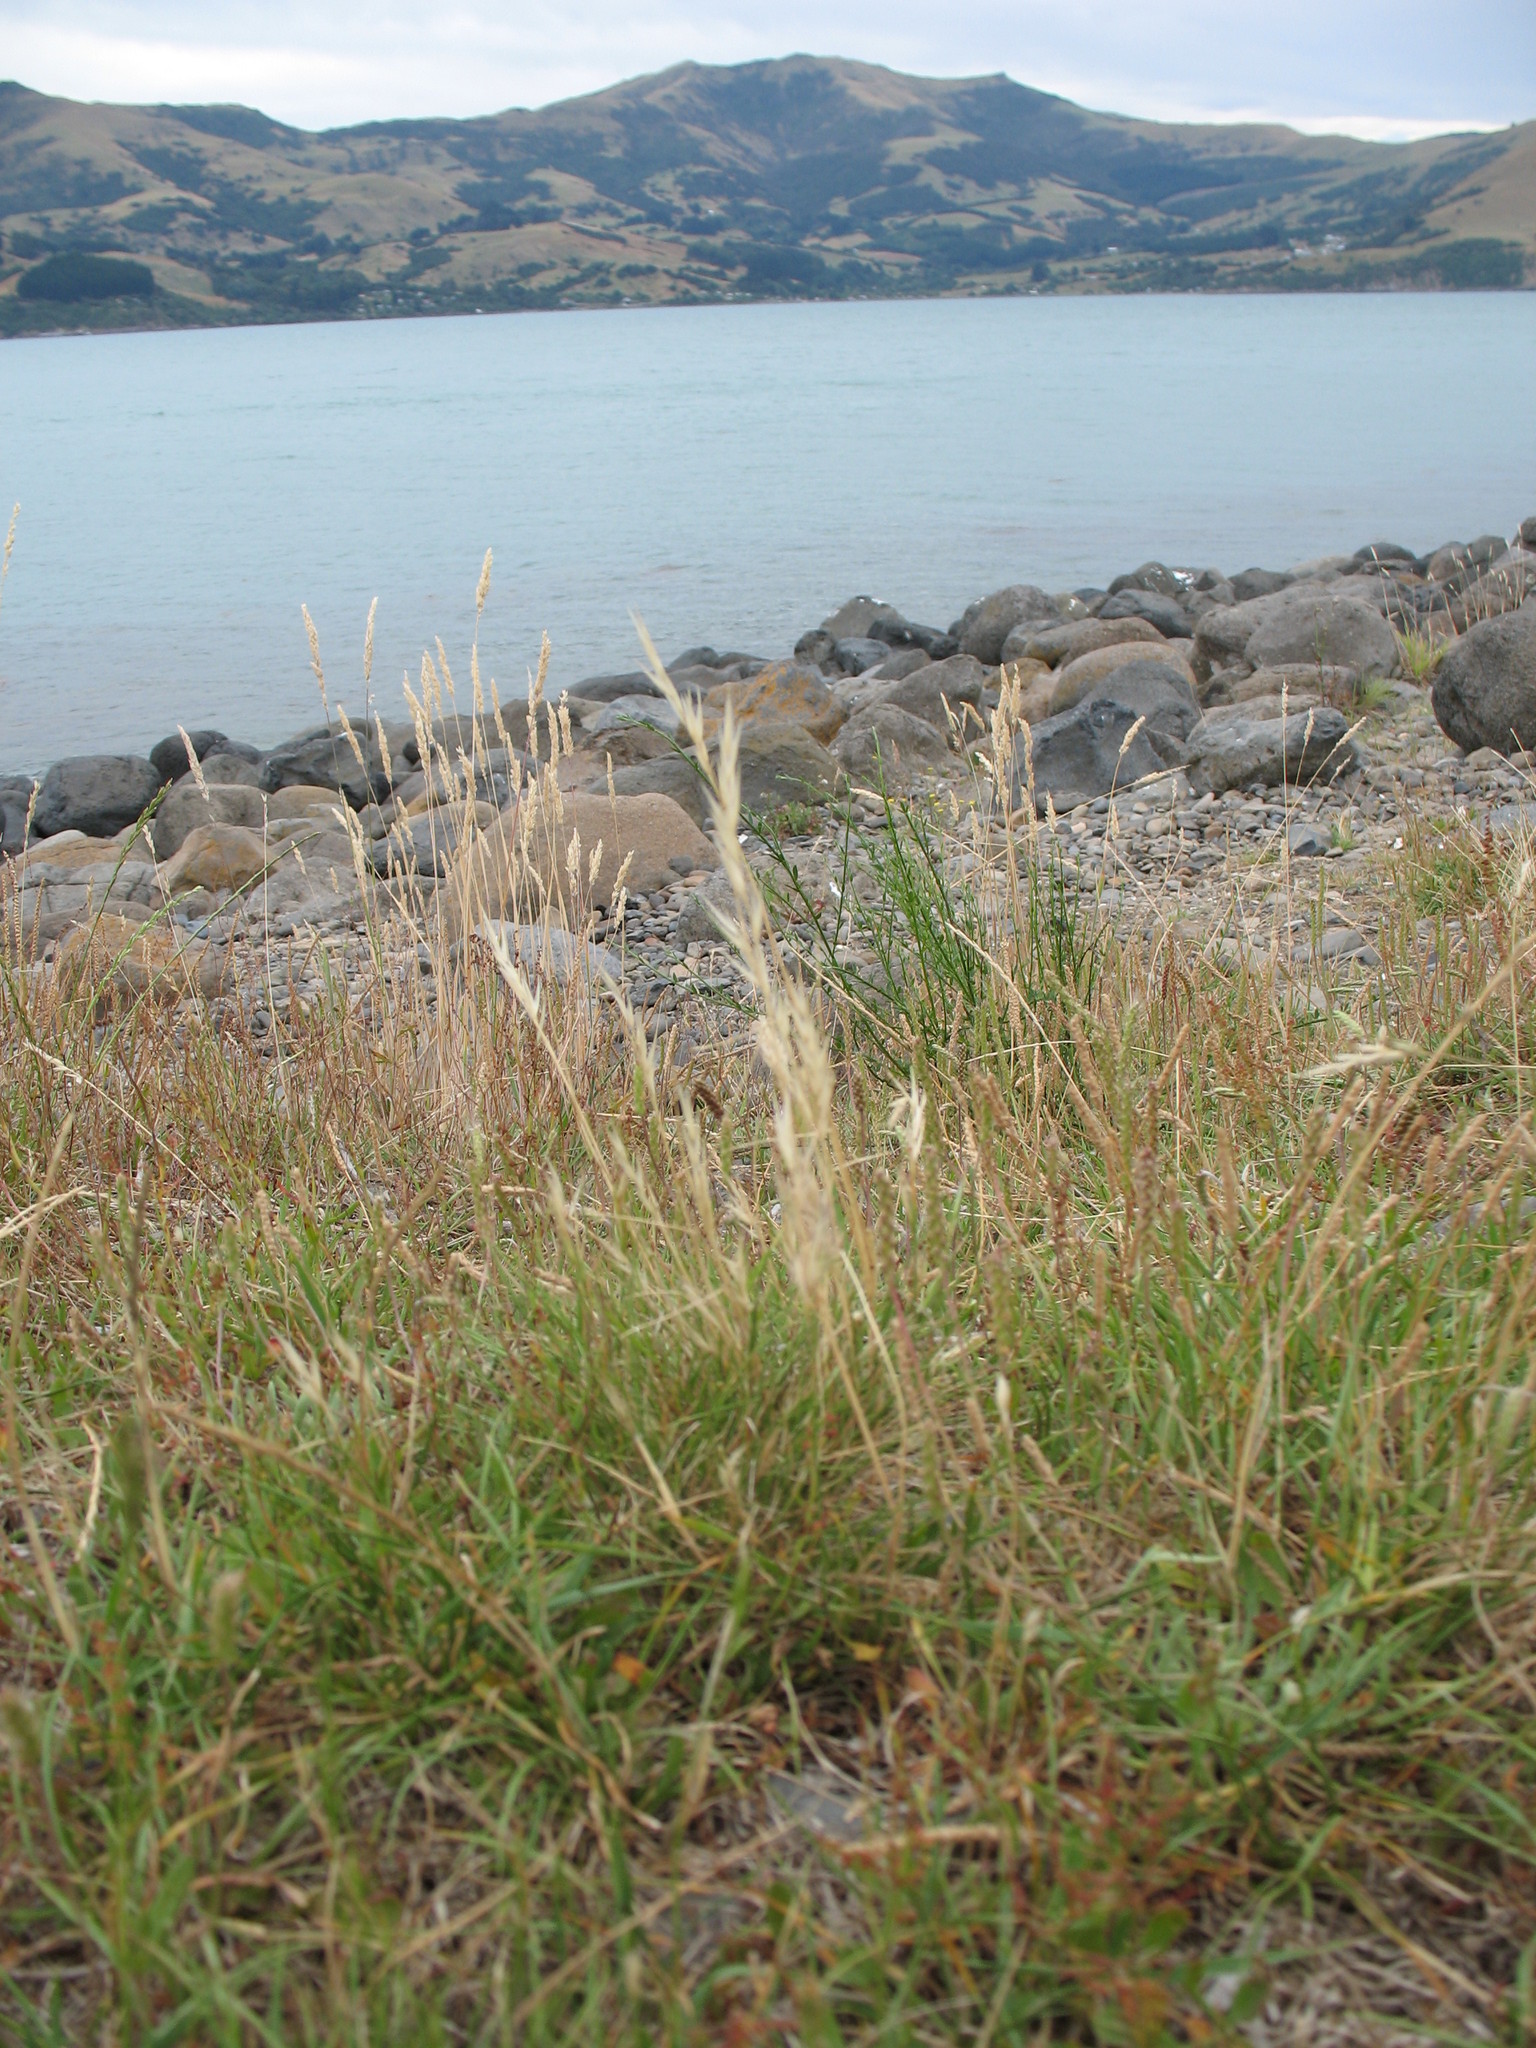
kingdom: Plantae
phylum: Tracheophyta
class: Liliopsida
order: Poales
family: Poaceae
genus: Rytidosperma
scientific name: Rytidosperma caespitosum
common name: Tufted wallaby grass
